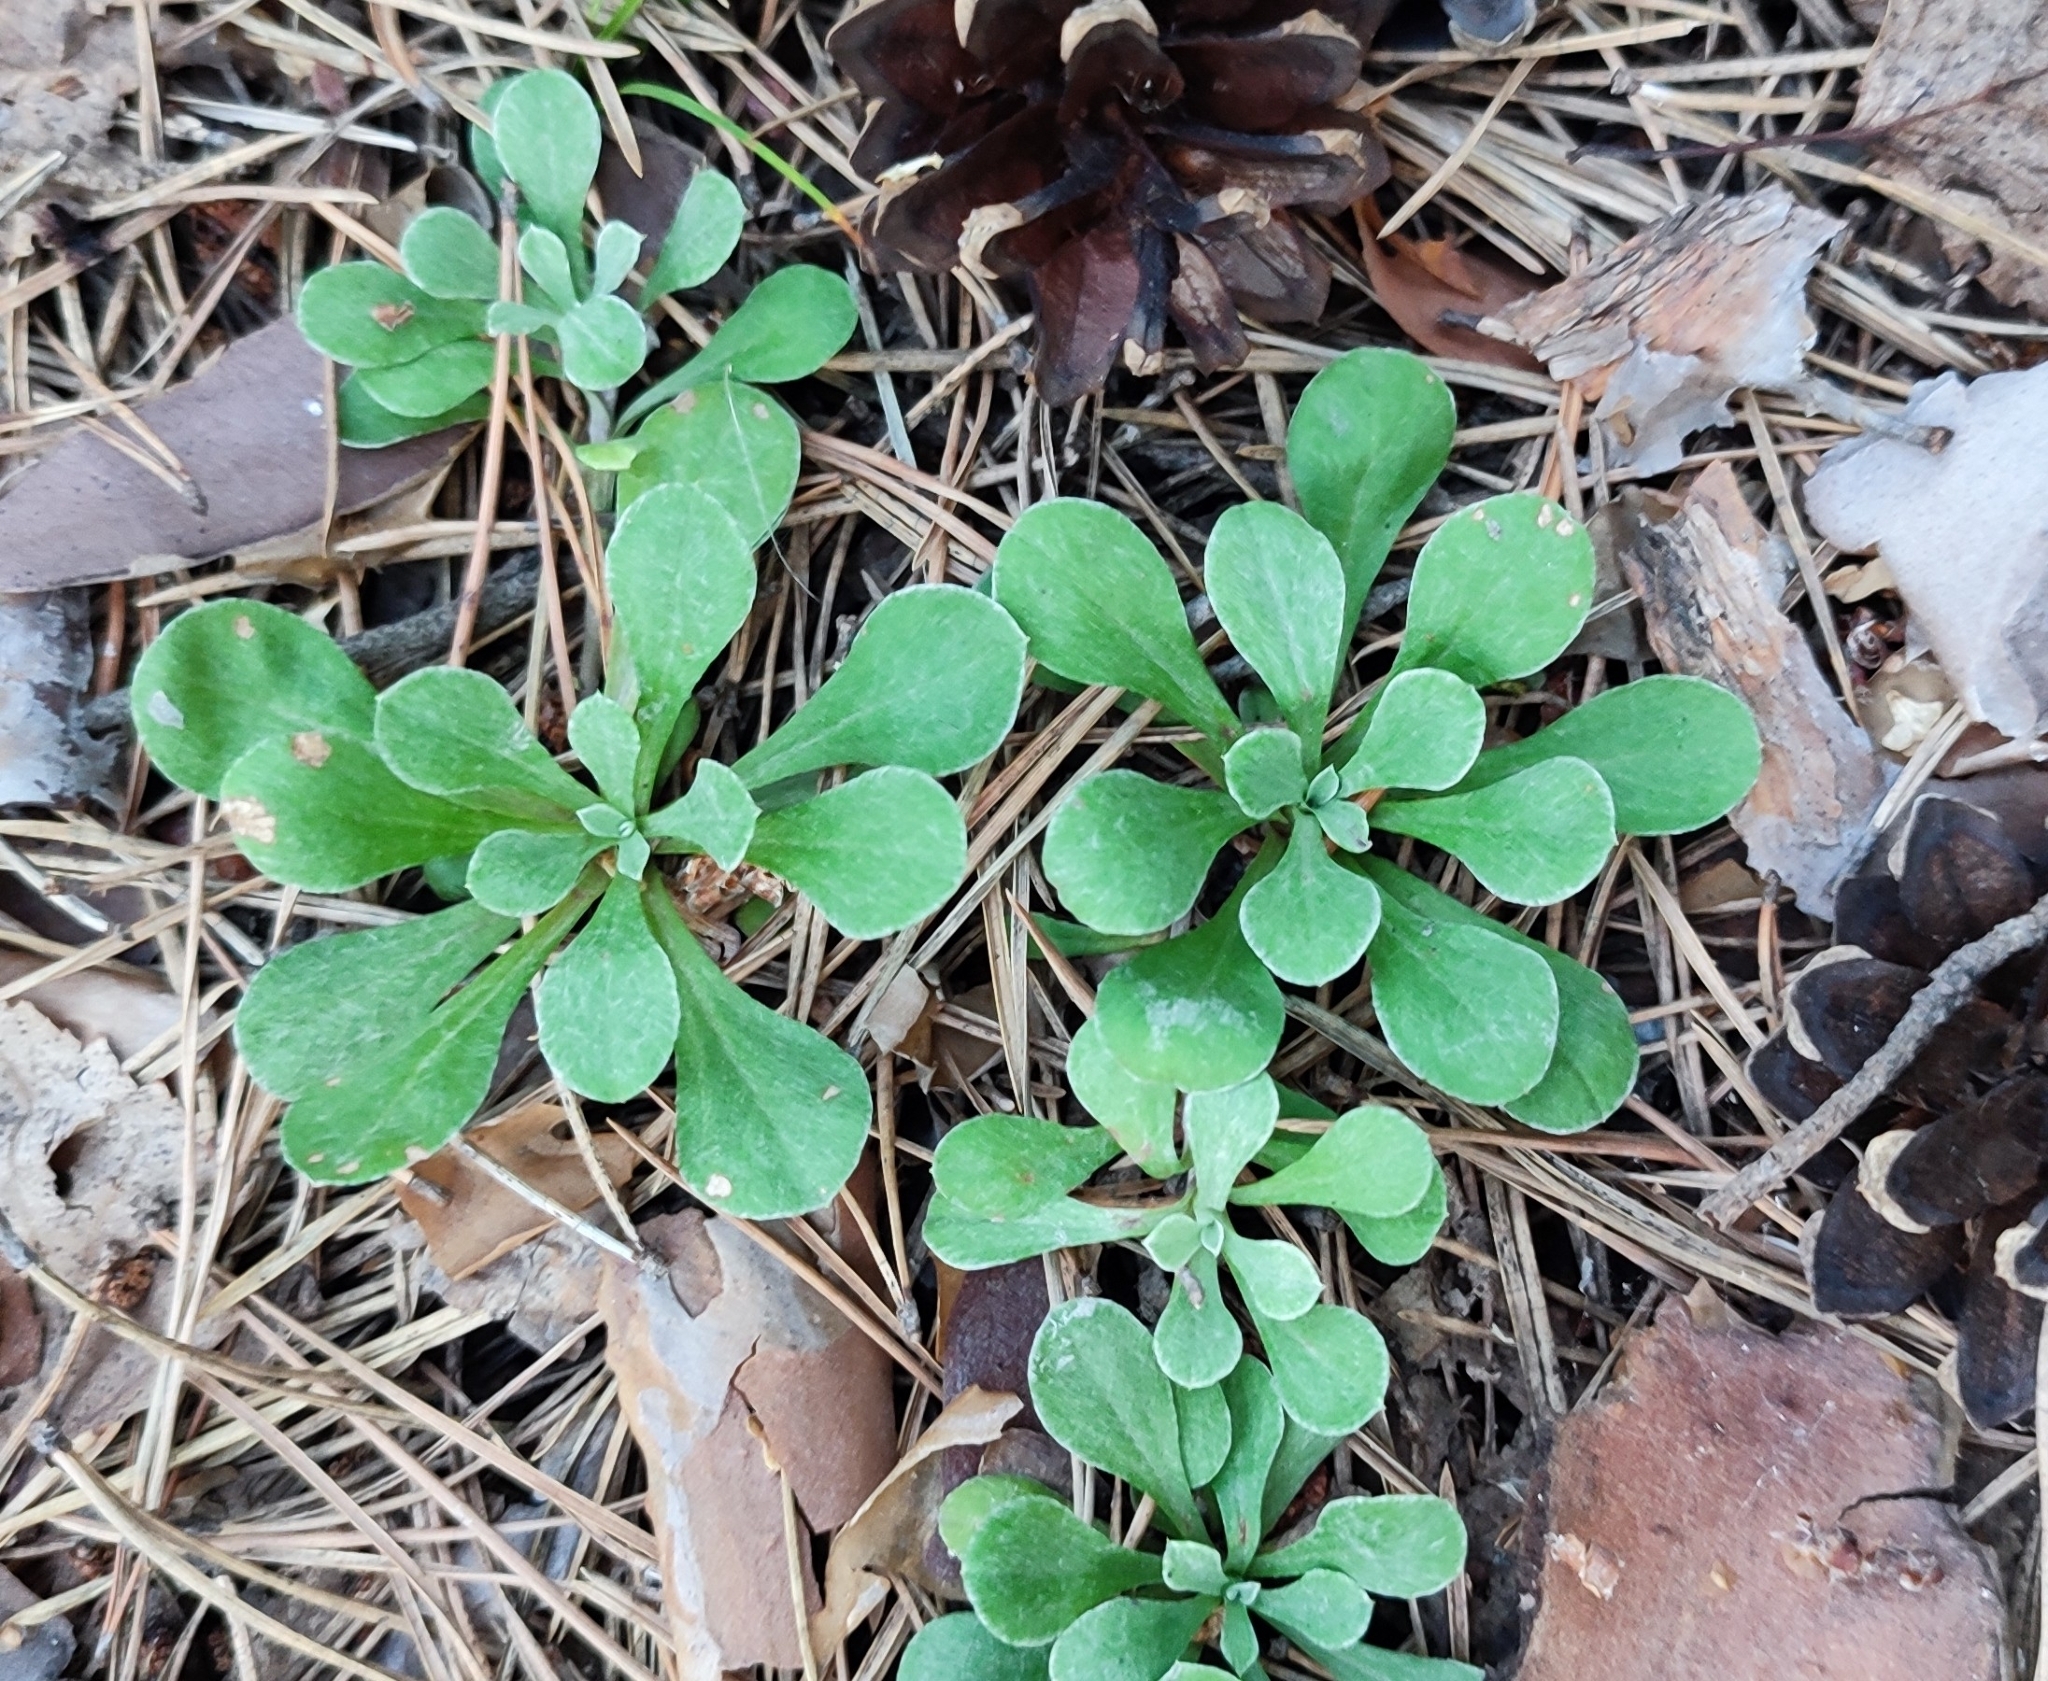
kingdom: Plantae
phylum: Tracheophyta
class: Magnoliopsida
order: Asterales
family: Asteraceae
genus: Antennaria
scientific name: Antennaria dioica
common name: Mountain everlasting
